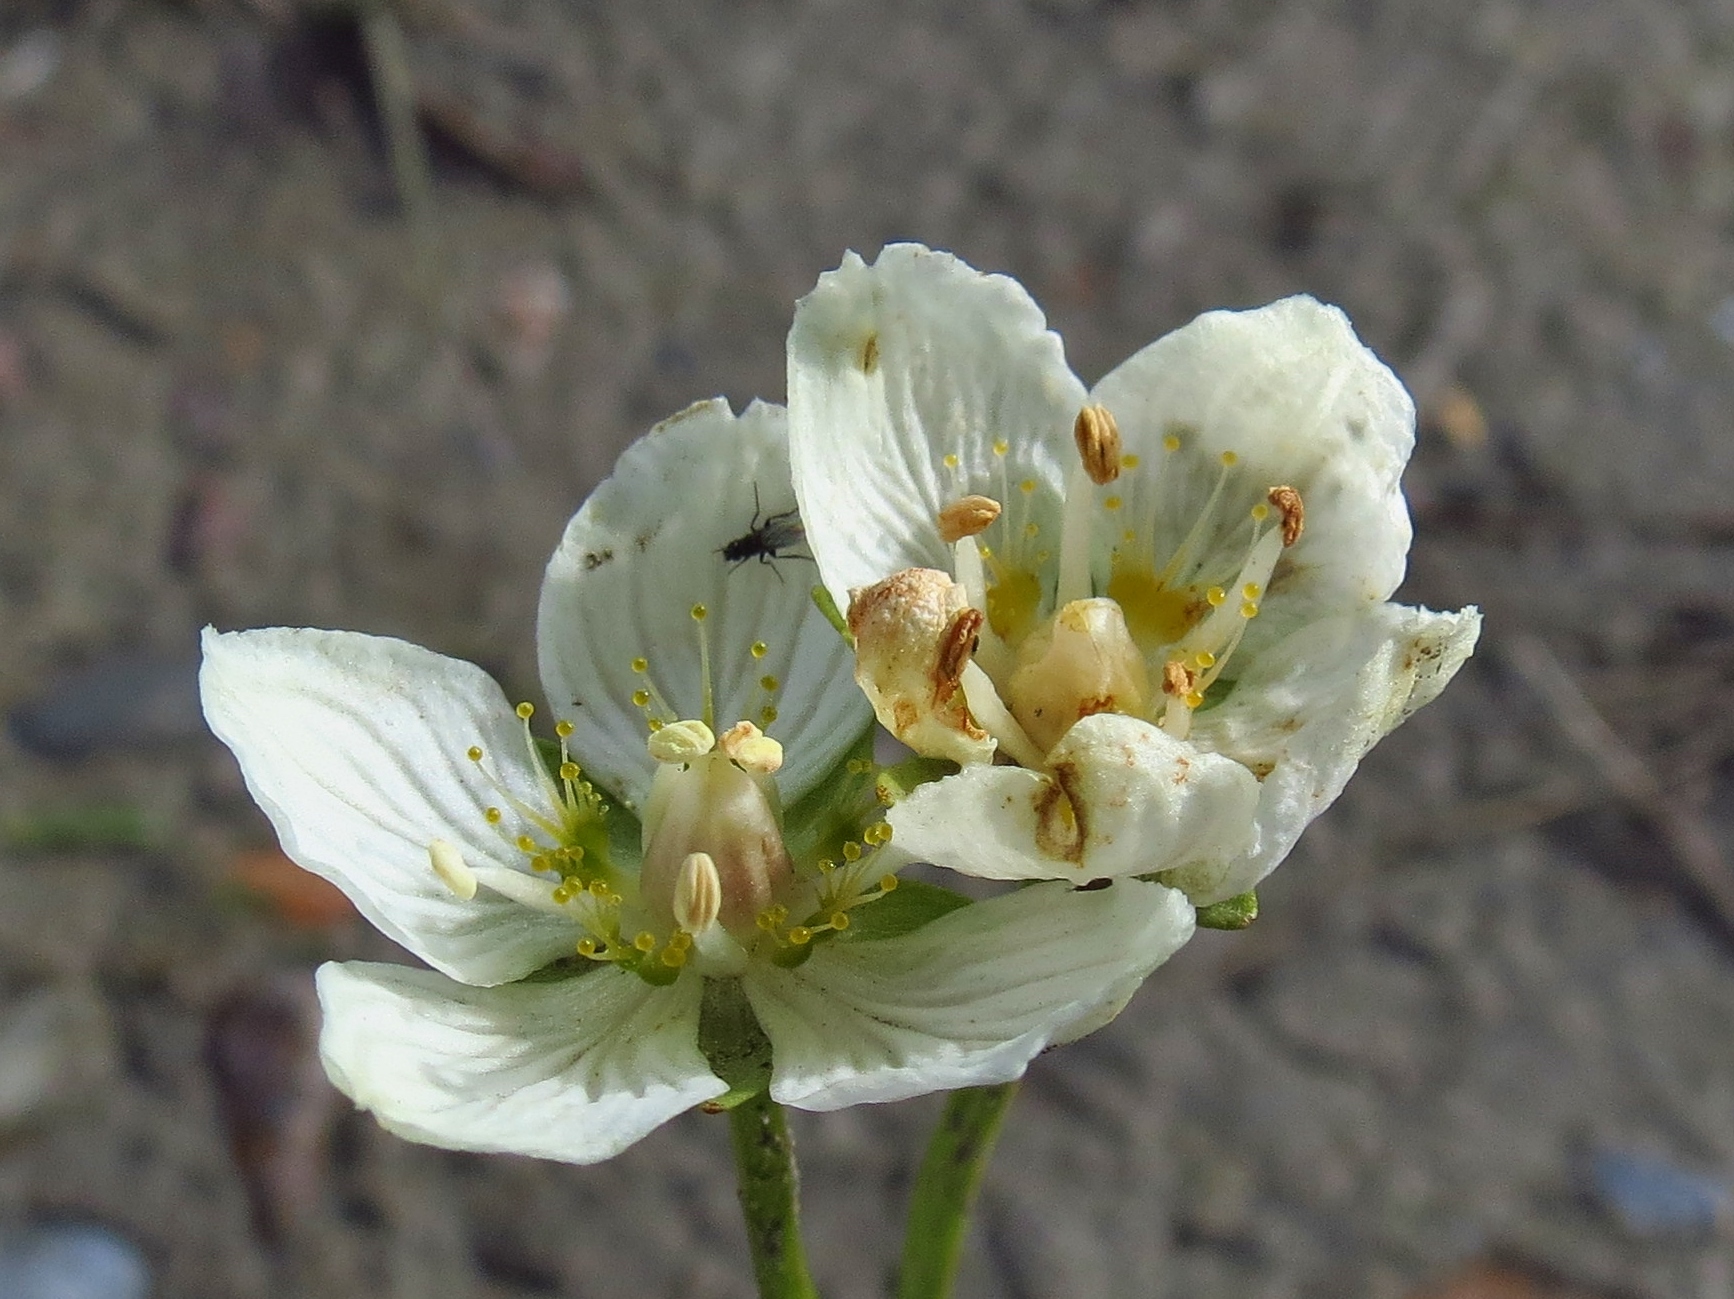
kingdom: Plantae
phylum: Tracheophyta
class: Magnoliopsida
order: Celastrales
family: Parnassiaceae
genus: Parnassia
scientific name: Parnassia palustris
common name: Grass-of-parnassus
